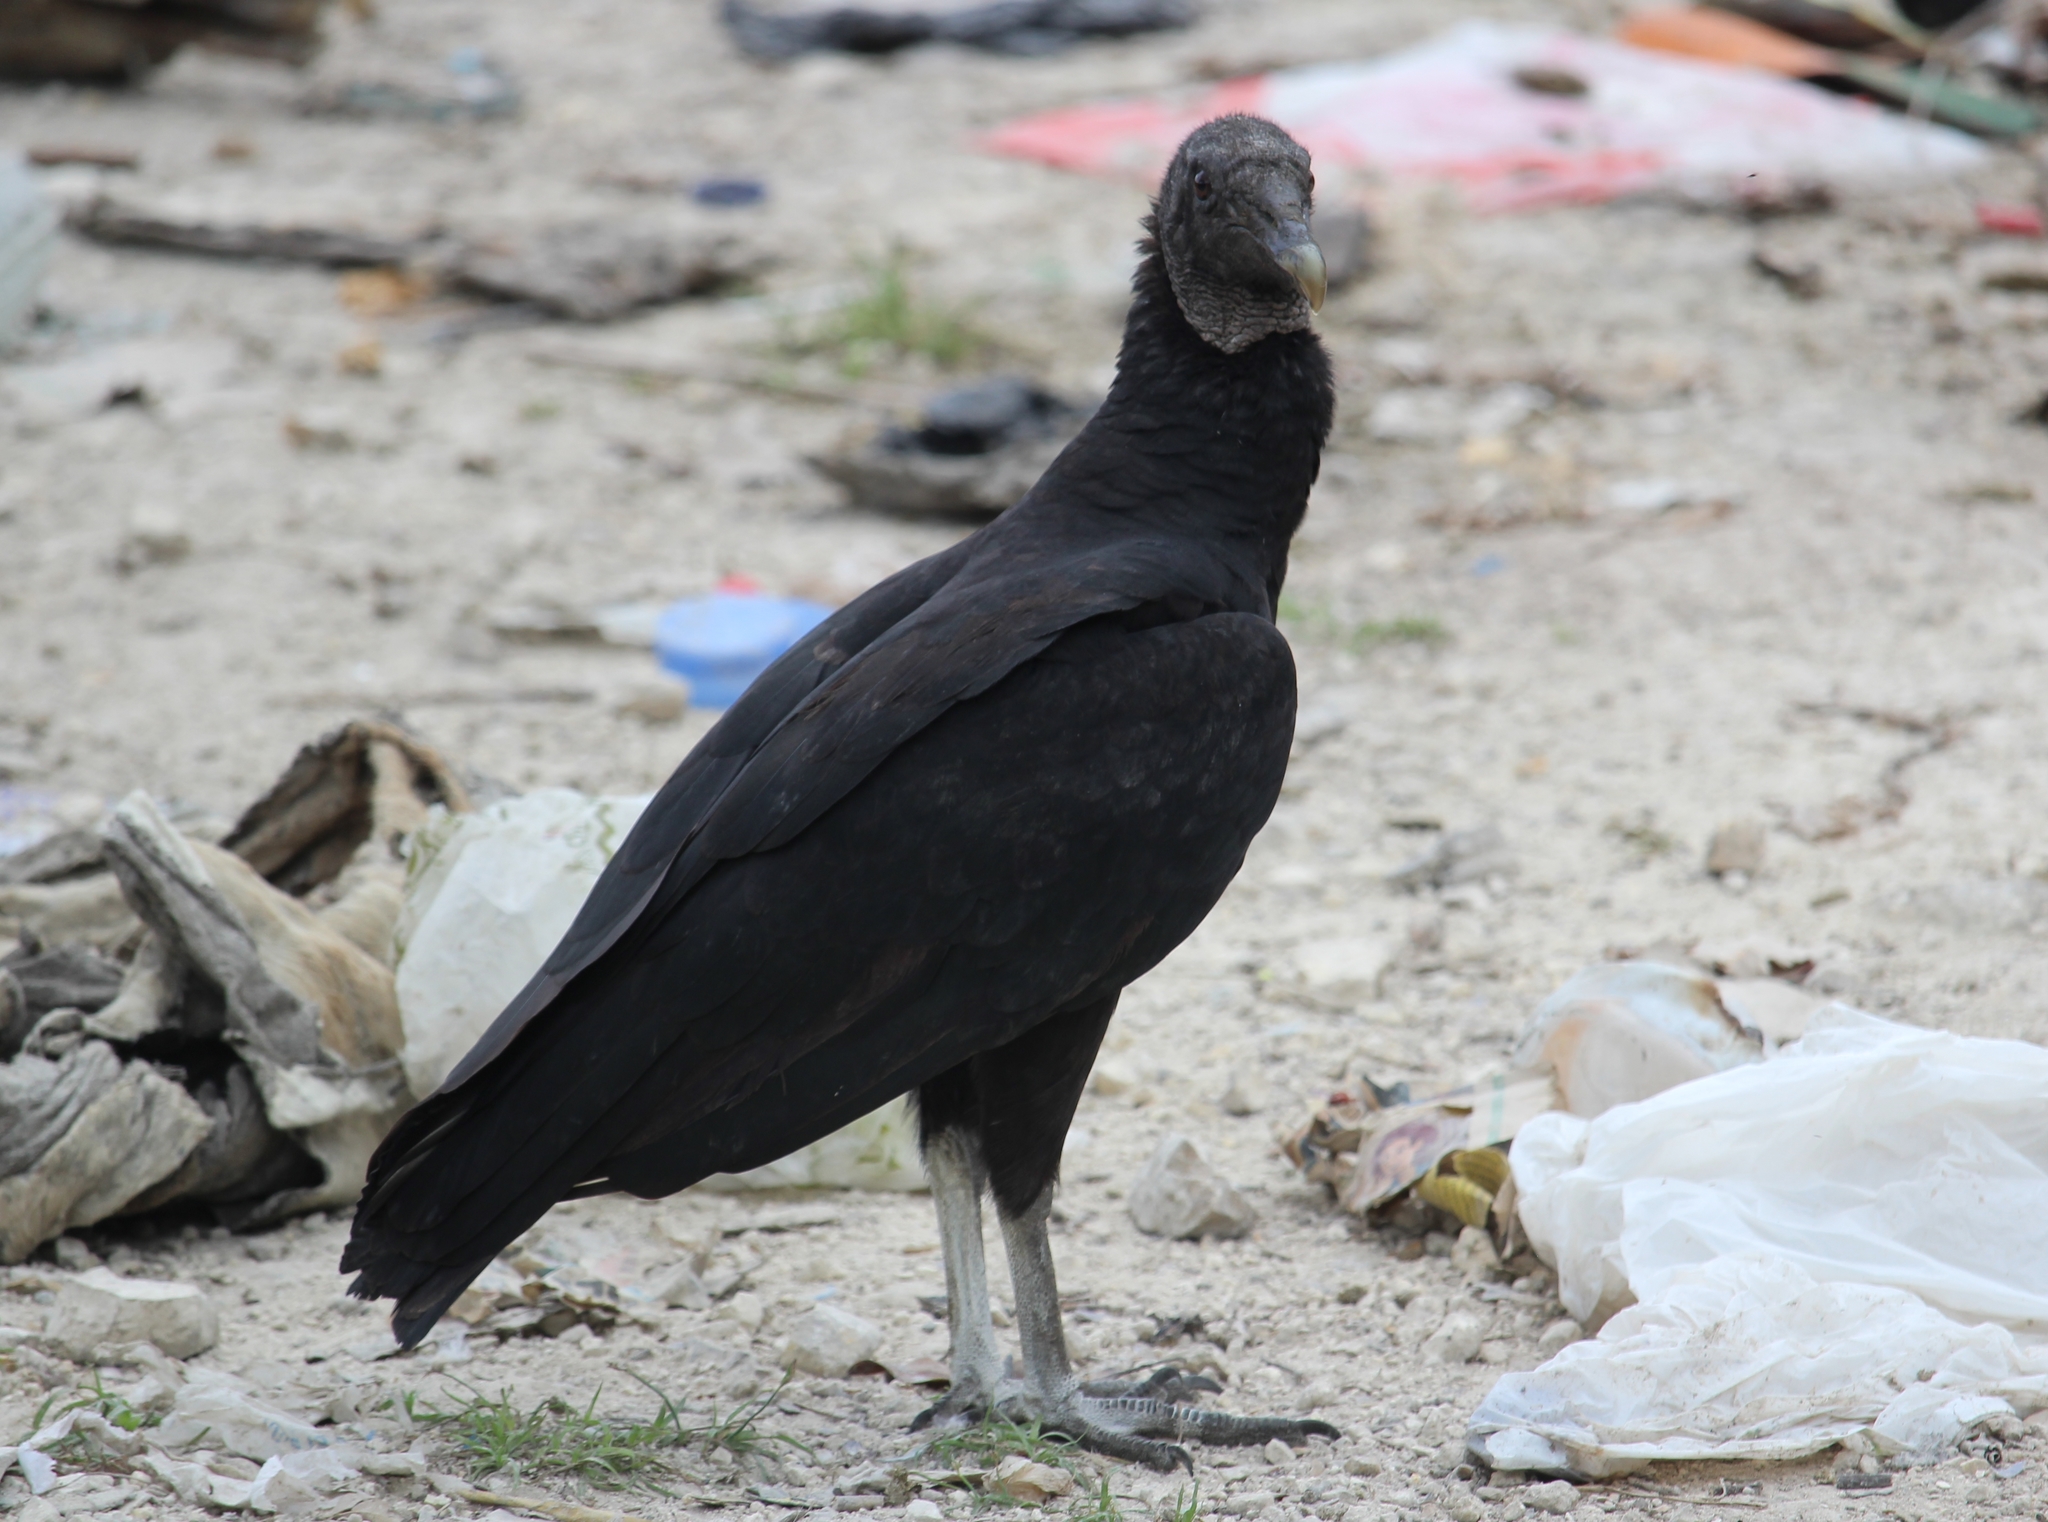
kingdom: Animalia
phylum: Chordata
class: Aves
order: Accipitriformes
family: Cathartidae
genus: Coragyps
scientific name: Coragyps atratus
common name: Black vulture
